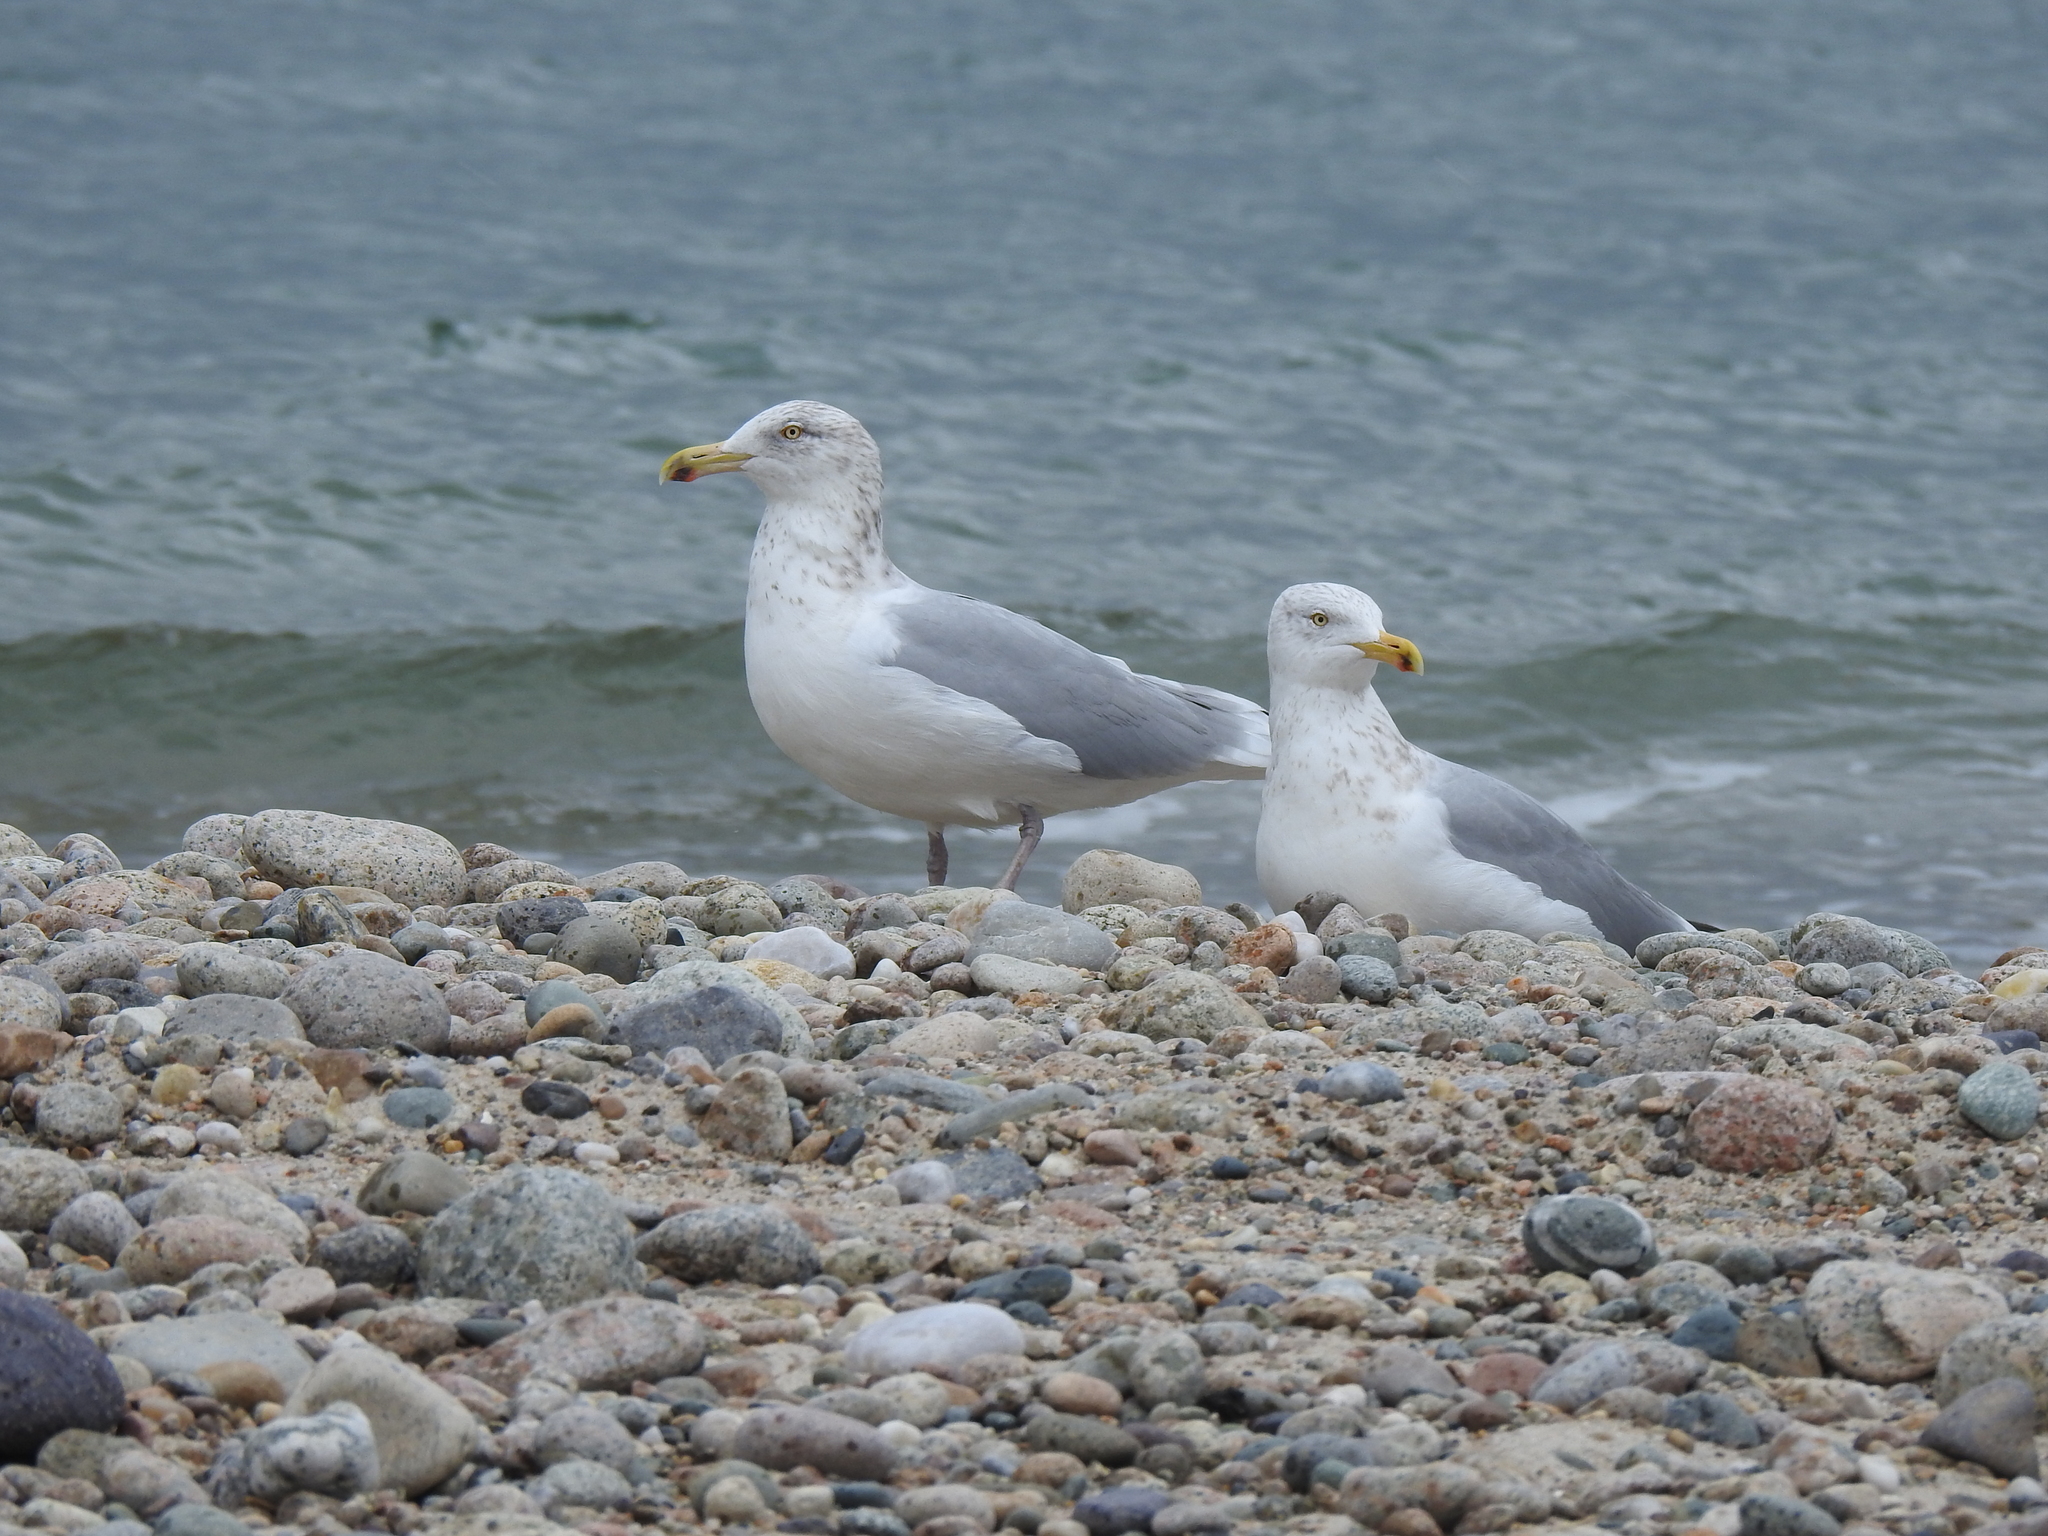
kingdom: Animalia
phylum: Chordata
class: Aves
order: Charadriiformes
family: Laridae
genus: Larus
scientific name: Larus argentatus
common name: Herring gull
